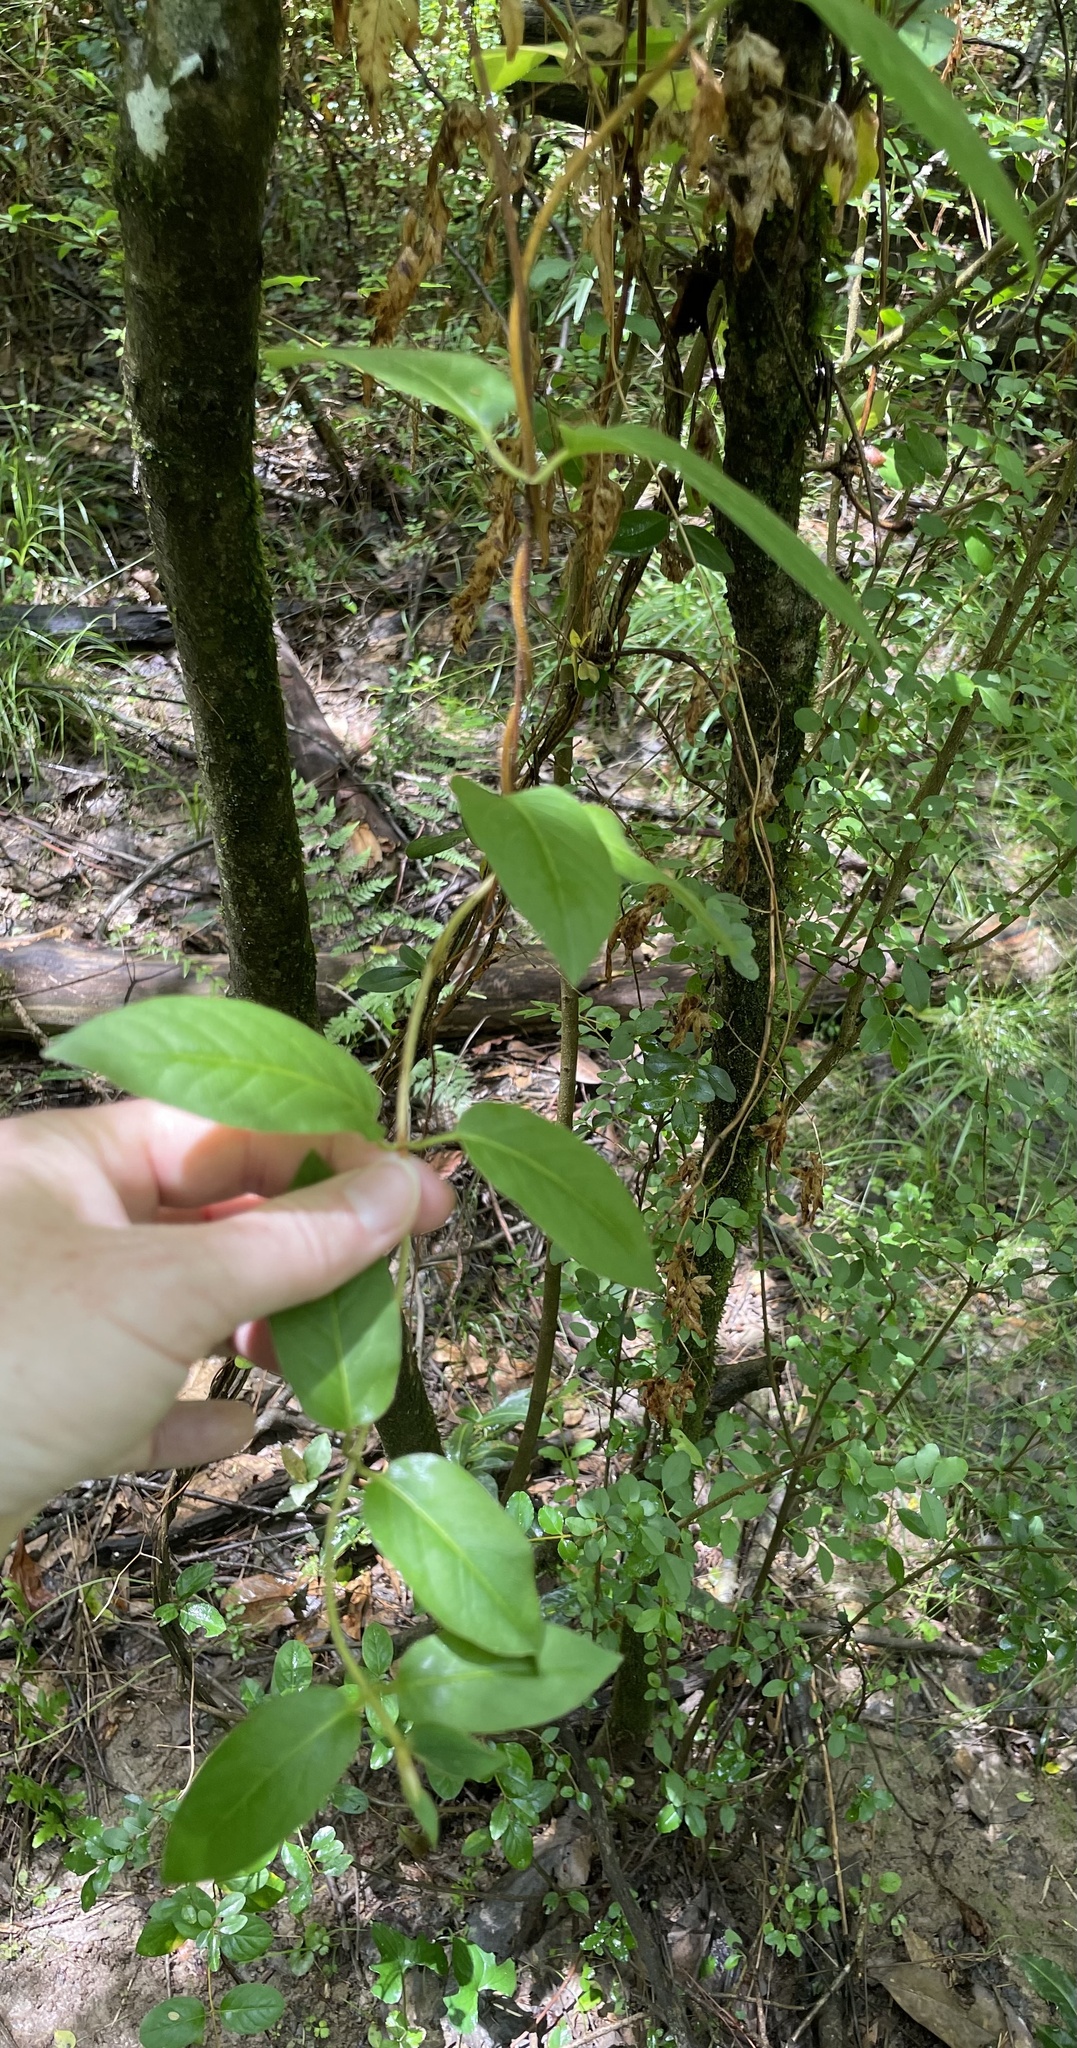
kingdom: Plantae
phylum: Tracheophyta
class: Magnoliopsida
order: Dipsacales
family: Caprifoliaceae
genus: Lonicera
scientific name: Lonicera japonica
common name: Japanese honeysuckle
